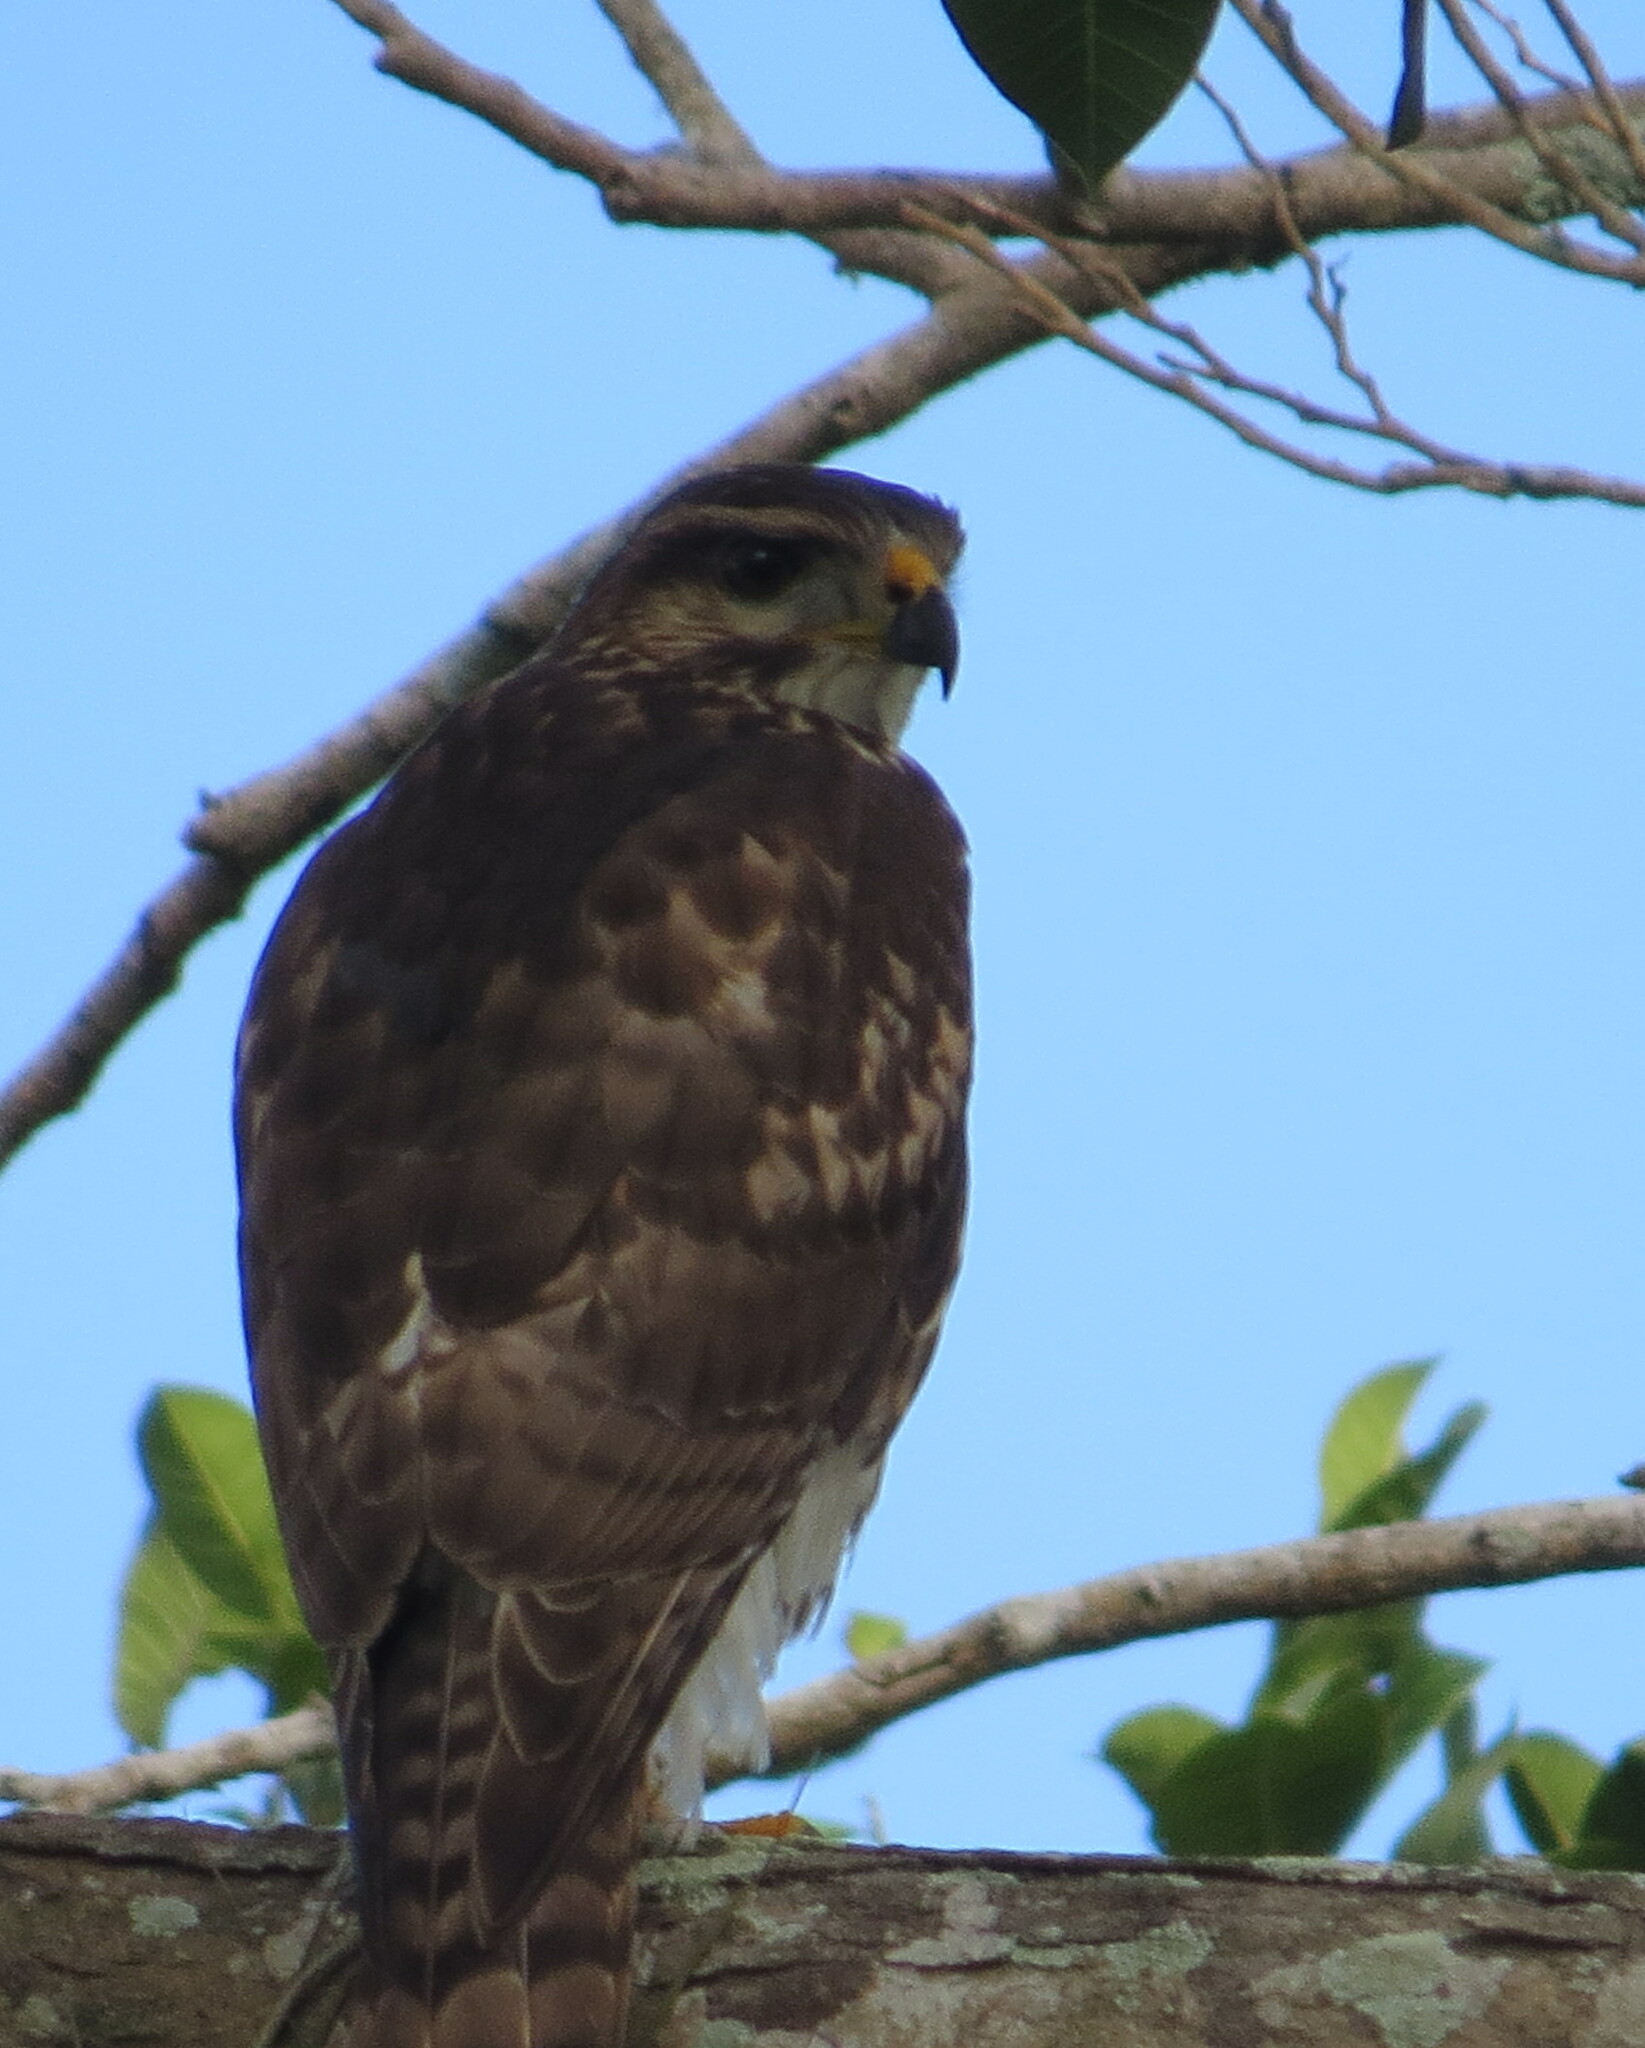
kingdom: Animalia
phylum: Chordata
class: Aves
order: Accipitriformes
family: Accipitridae
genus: Buteo
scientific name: Buteo nitidus
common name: Grey-lined hawk
